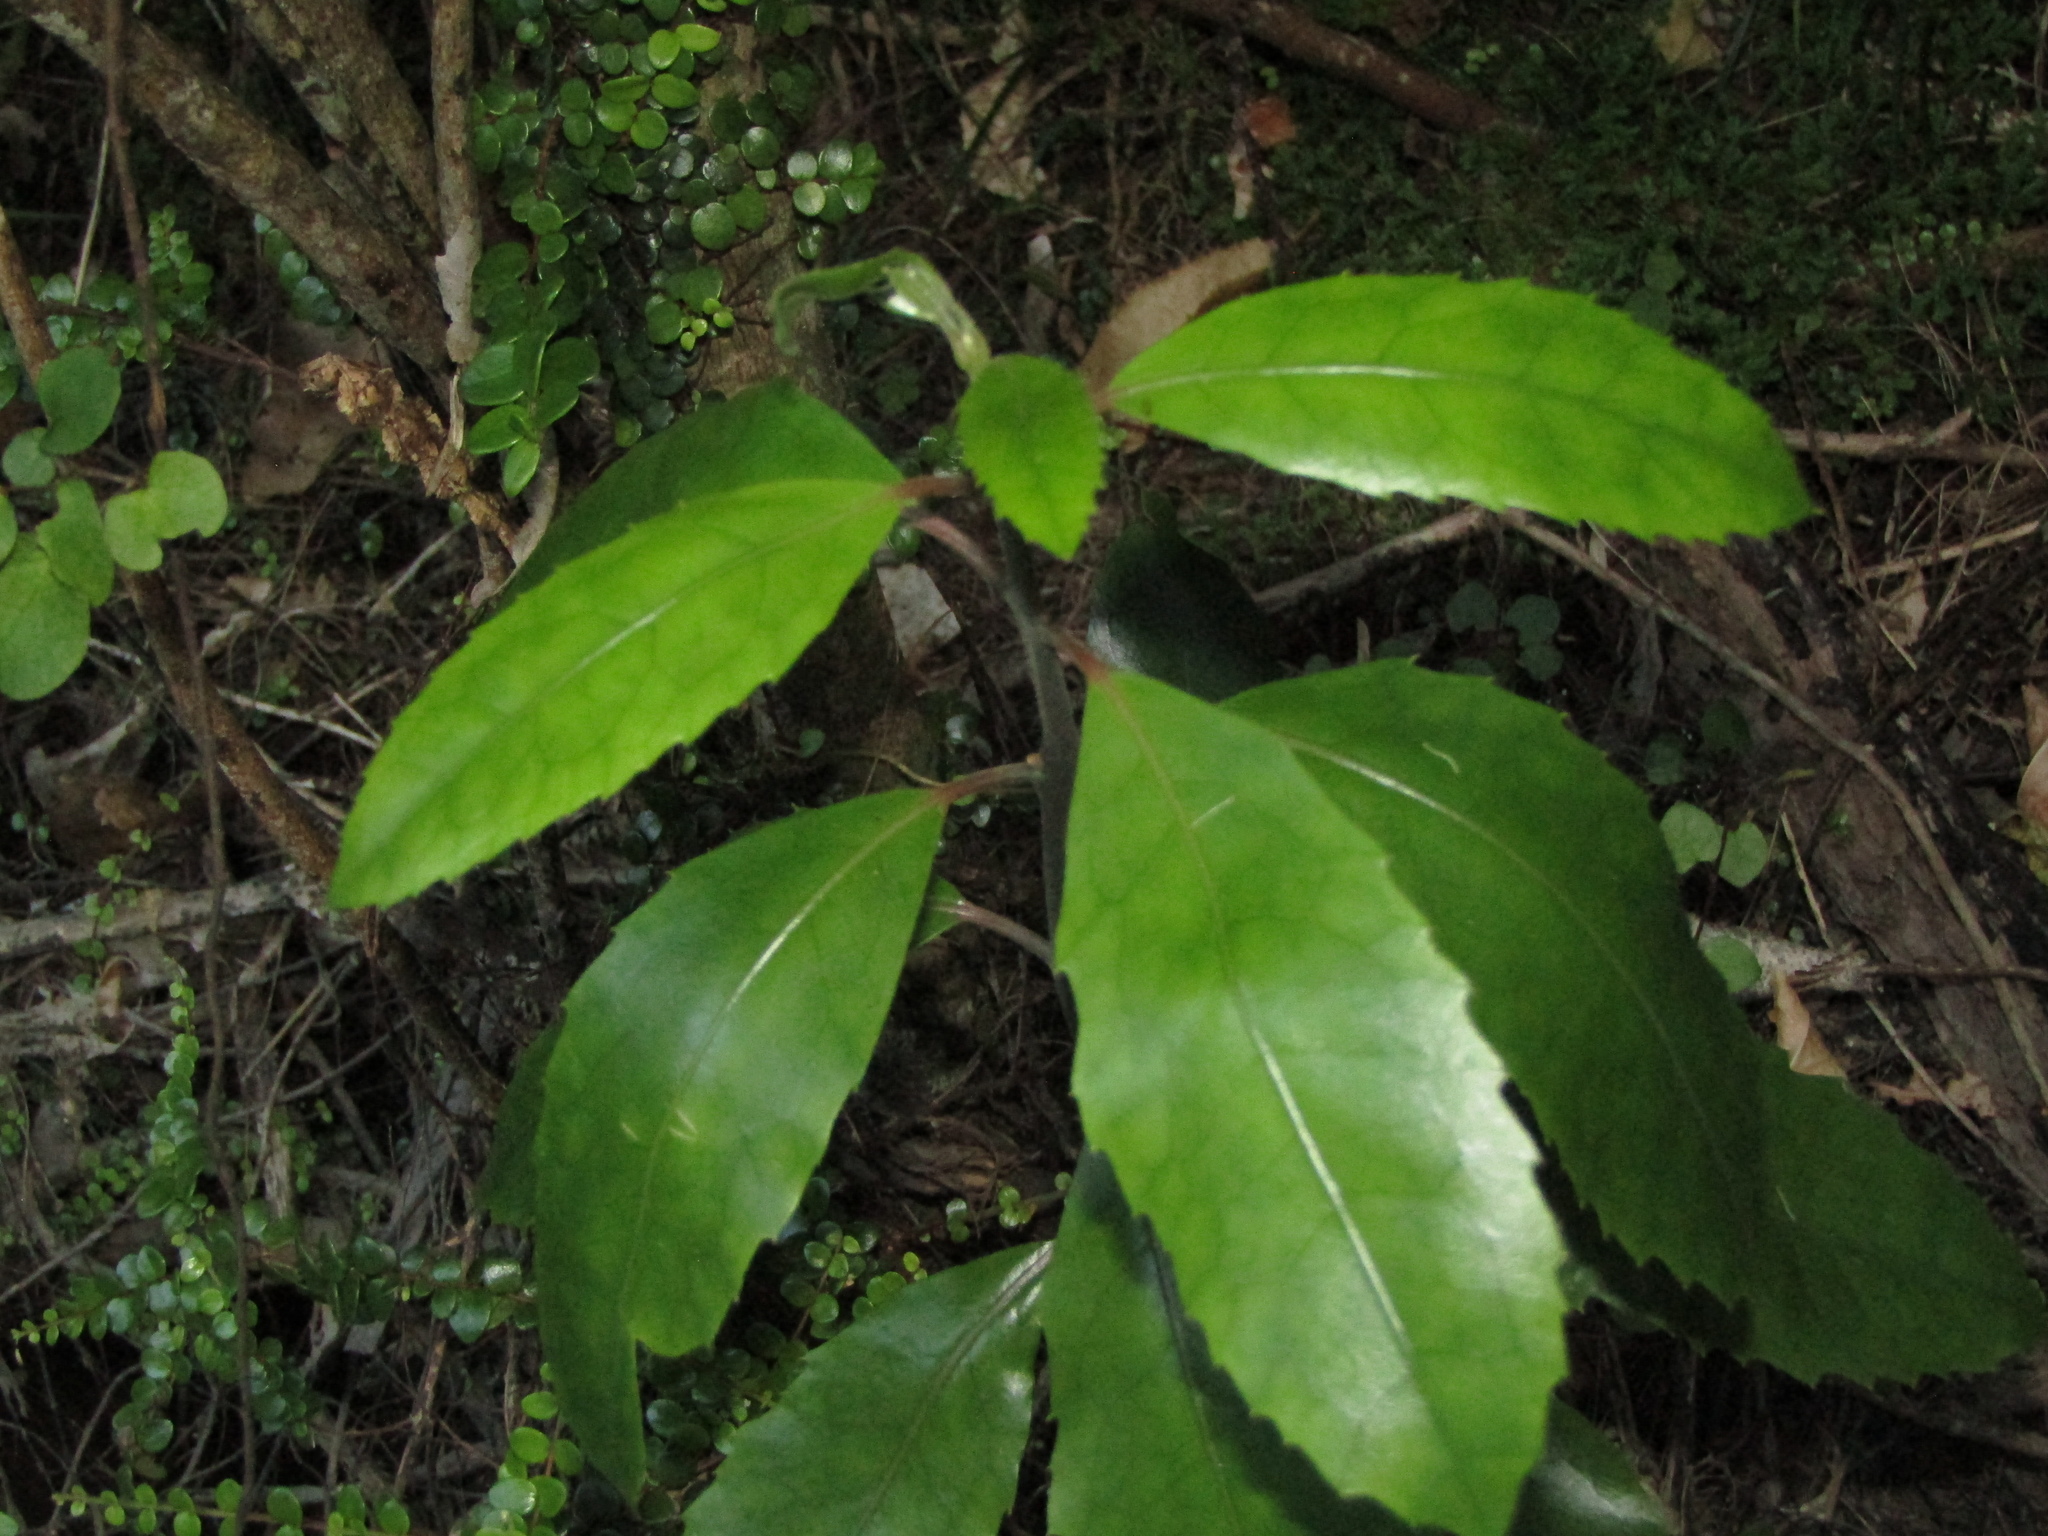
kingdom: Plantae
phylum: Tracheophyta
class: Magnoliopsida
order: Laurales
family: Monimiaceae
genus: Hedycarya
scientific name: Hedycarya arborea
